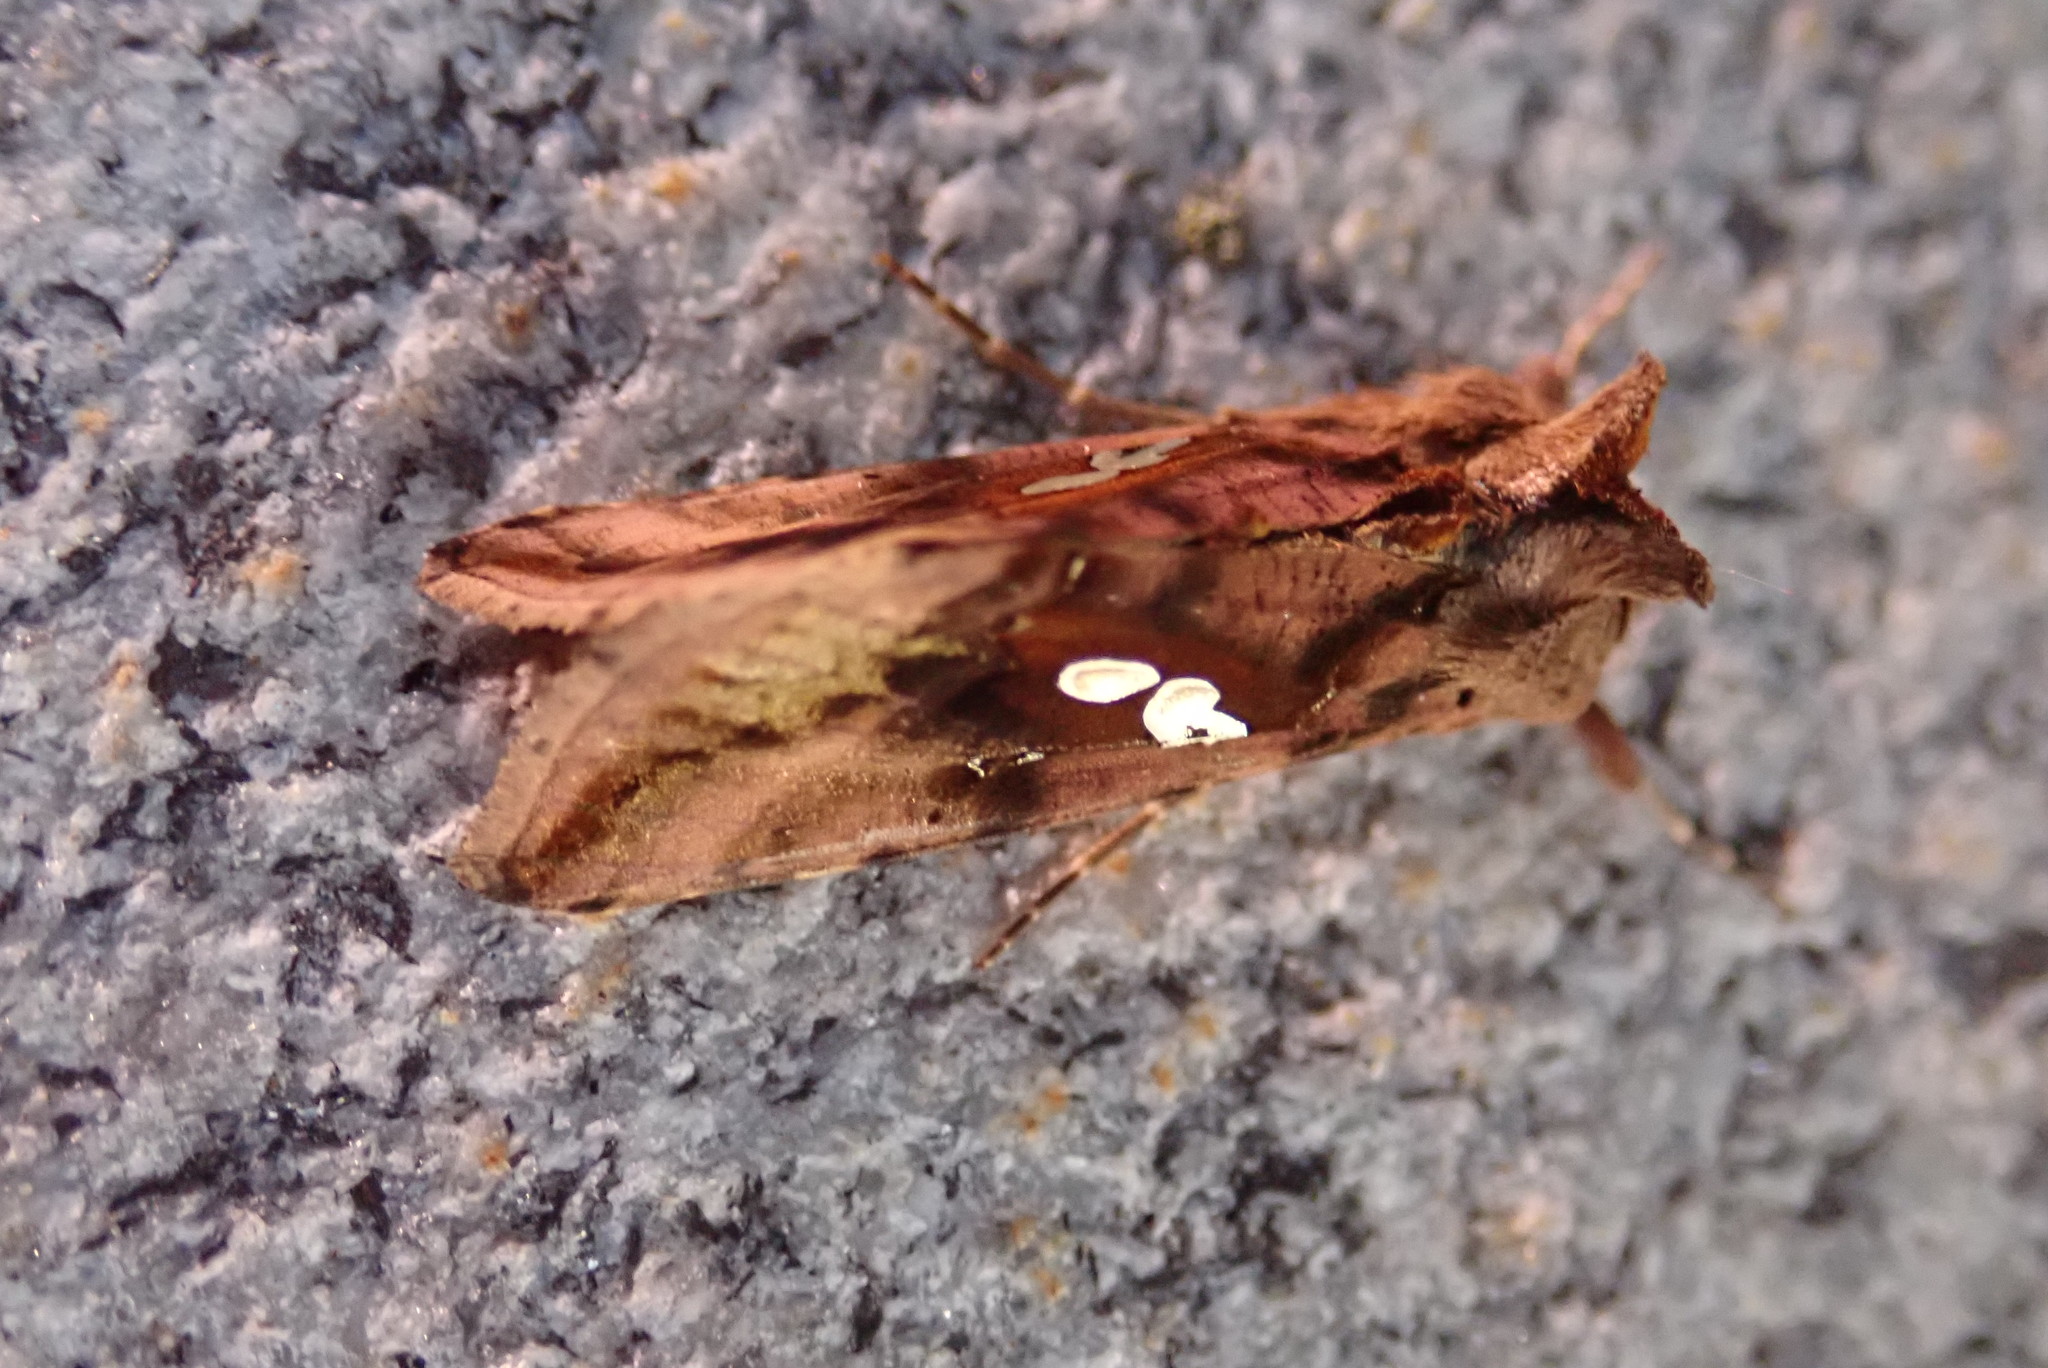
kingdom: Animalia
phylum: Arthropoda
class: Insecta
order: Lepidoptera
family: Noctuidae
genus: Autographa
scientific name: Autographa bimaculata
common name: Double-spotted spangle
